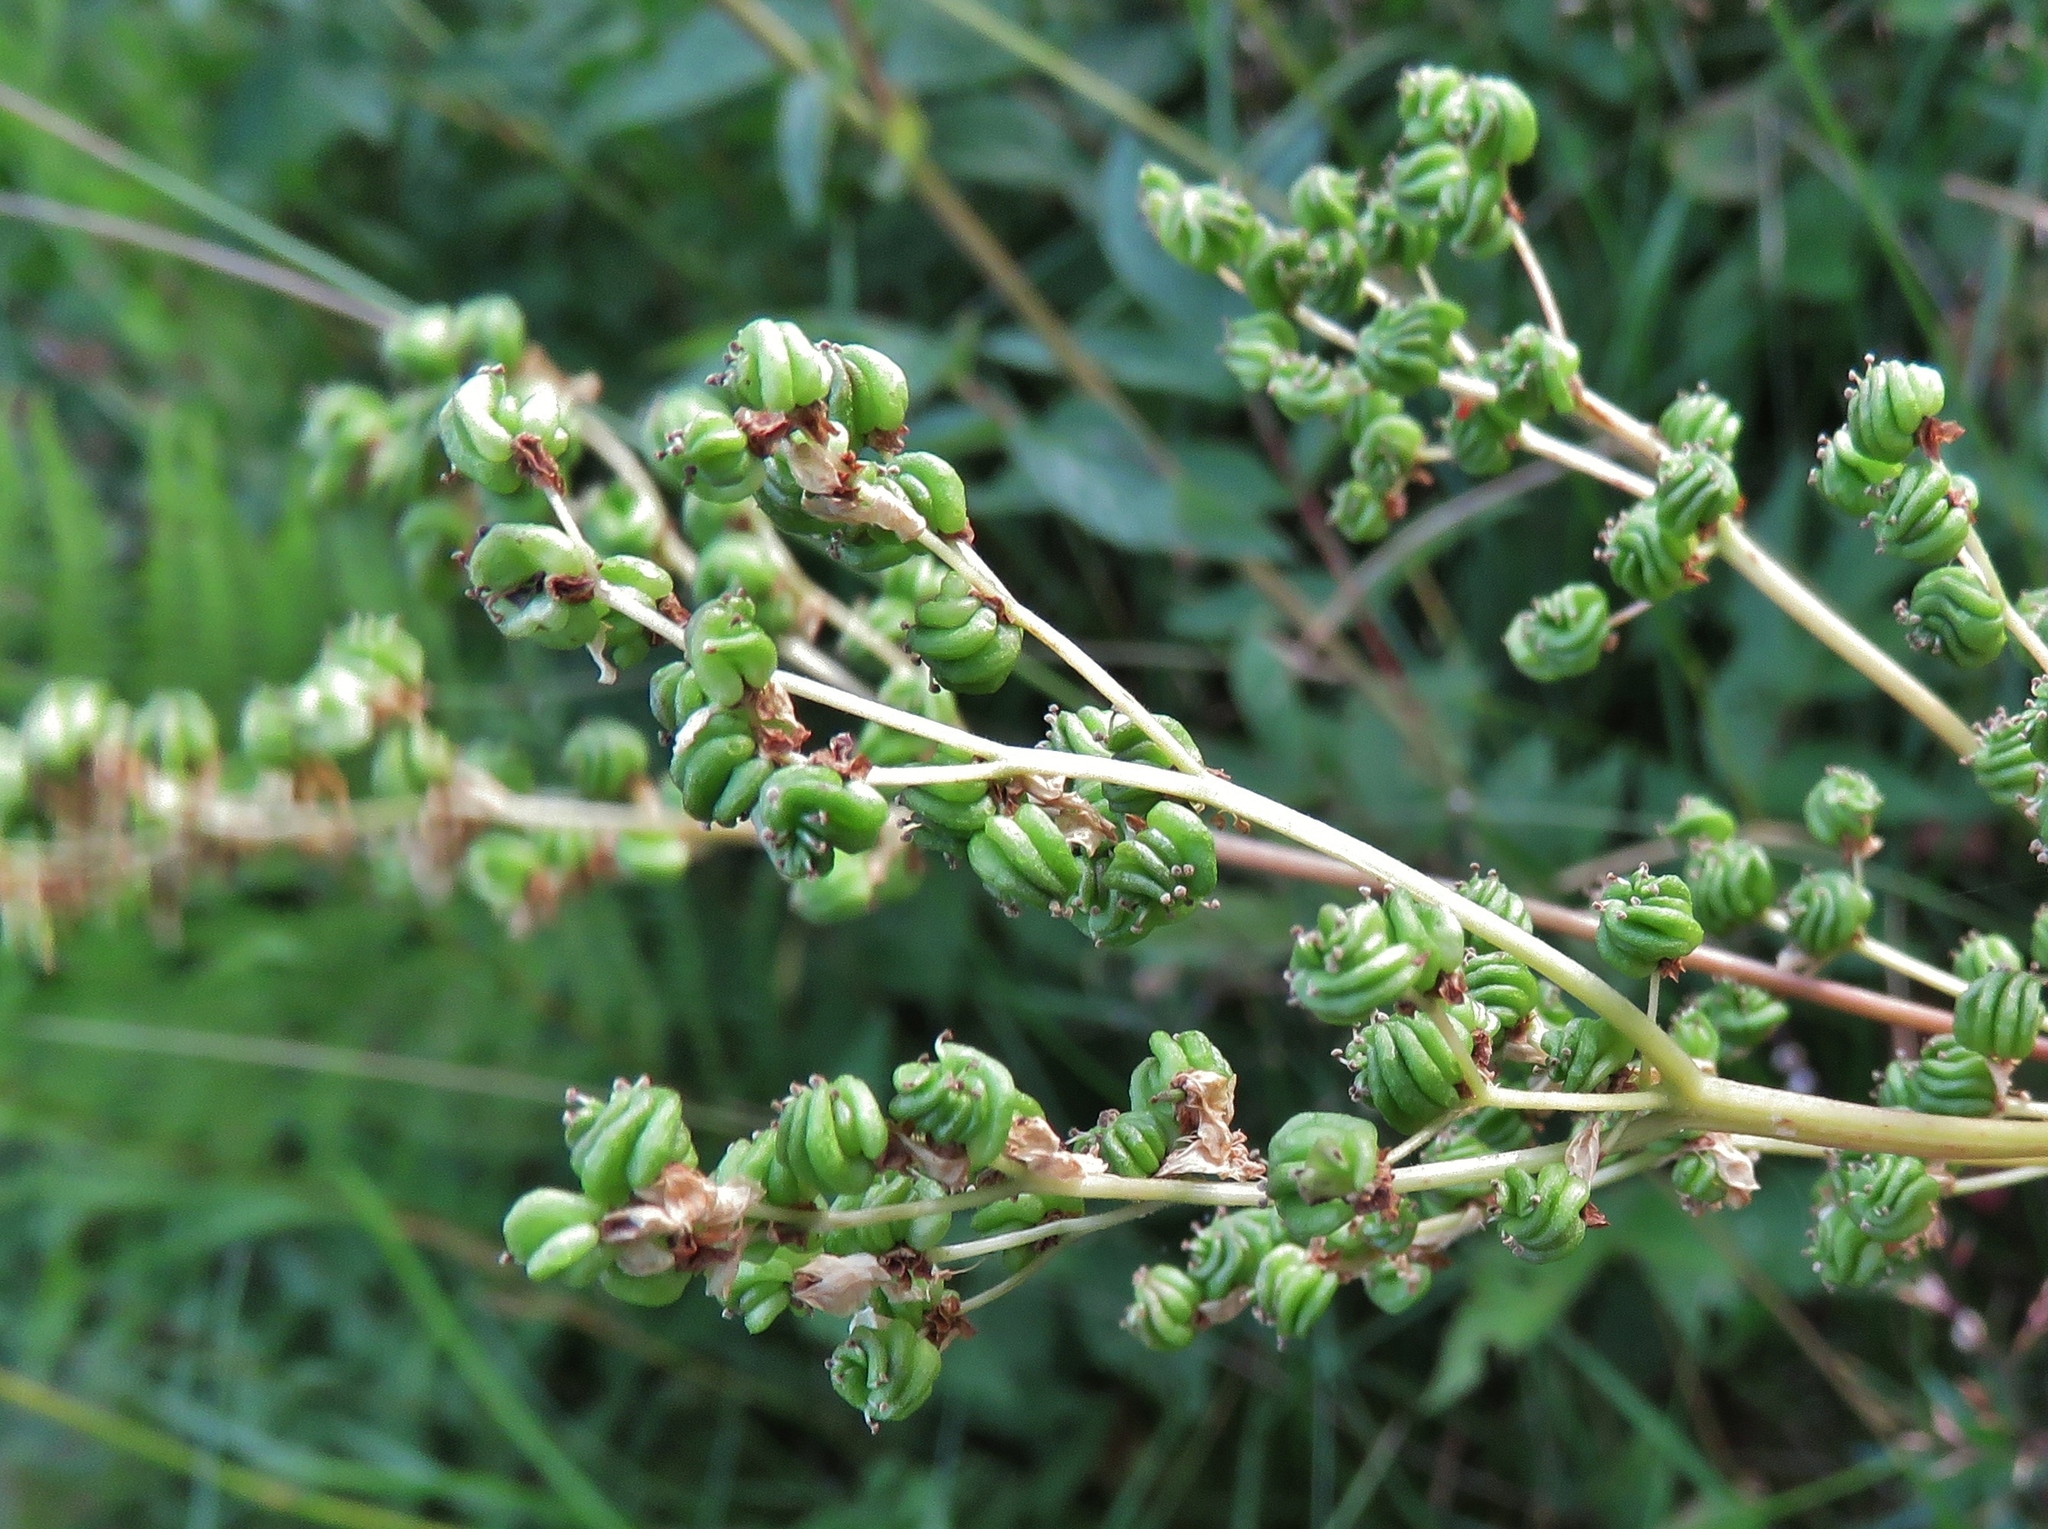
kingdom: Plantae
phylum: Tracheophyta
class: Magnoliopsida
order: Rosales
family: Rosaceae
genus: Filipendula
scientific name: Filipendula ulmaria
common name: Meadowsweet
